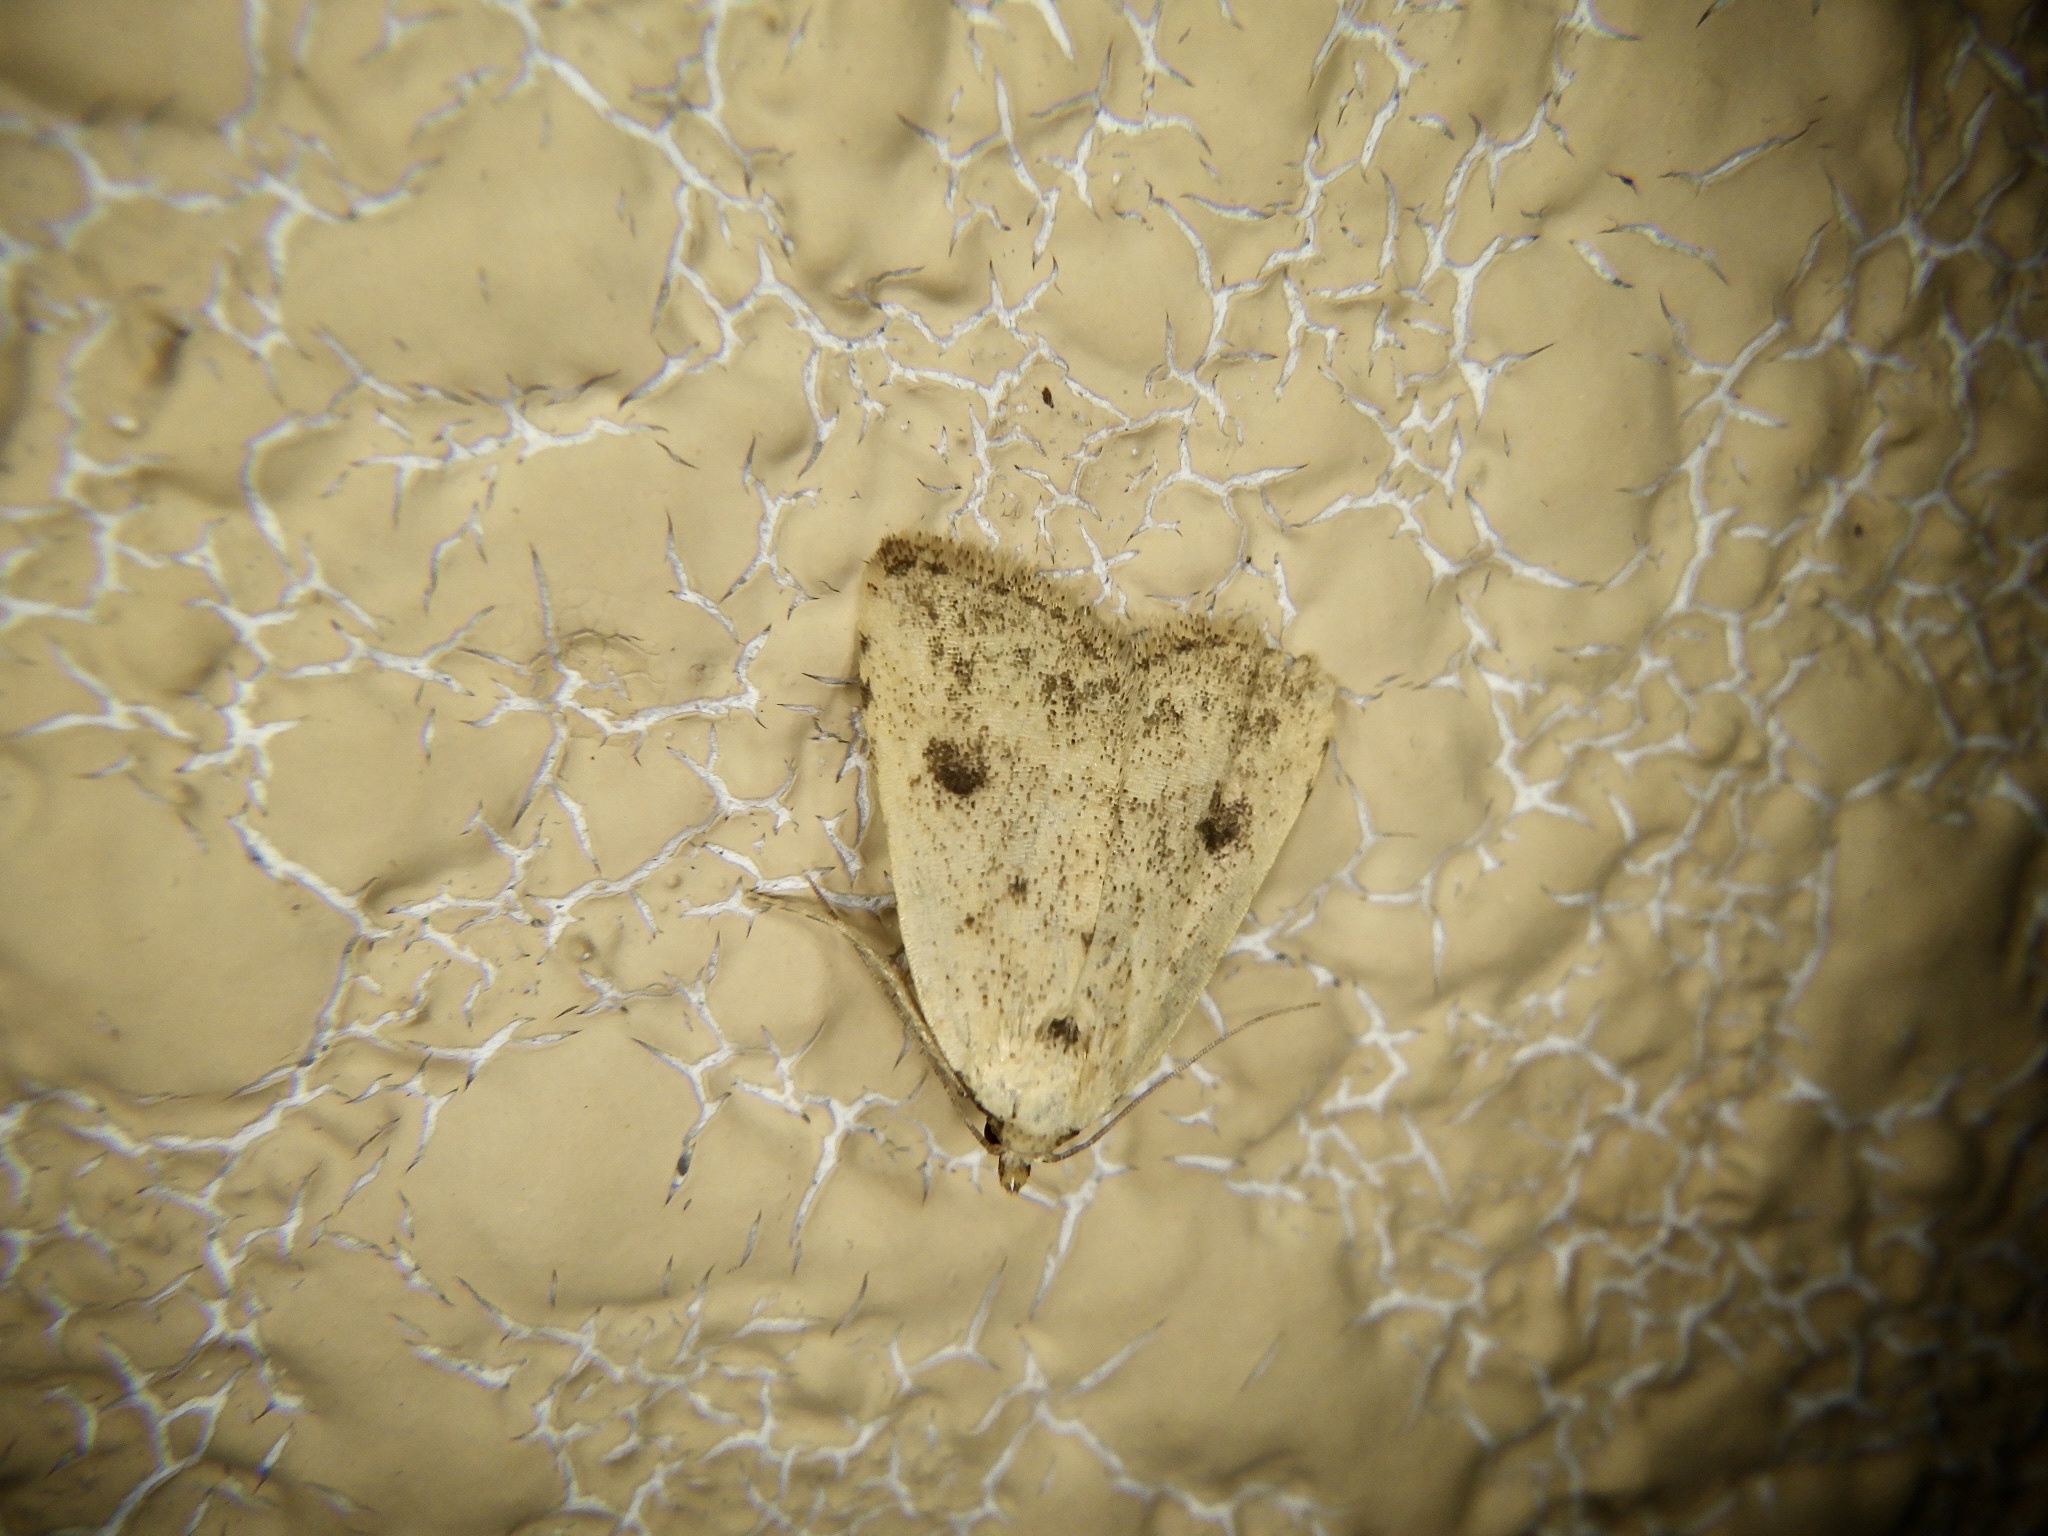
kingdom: Animalia
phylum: Arthropoda
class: Insecta
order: Lepidoptera
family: Erebidae
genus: Anachrostis
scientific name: Anachrostis
